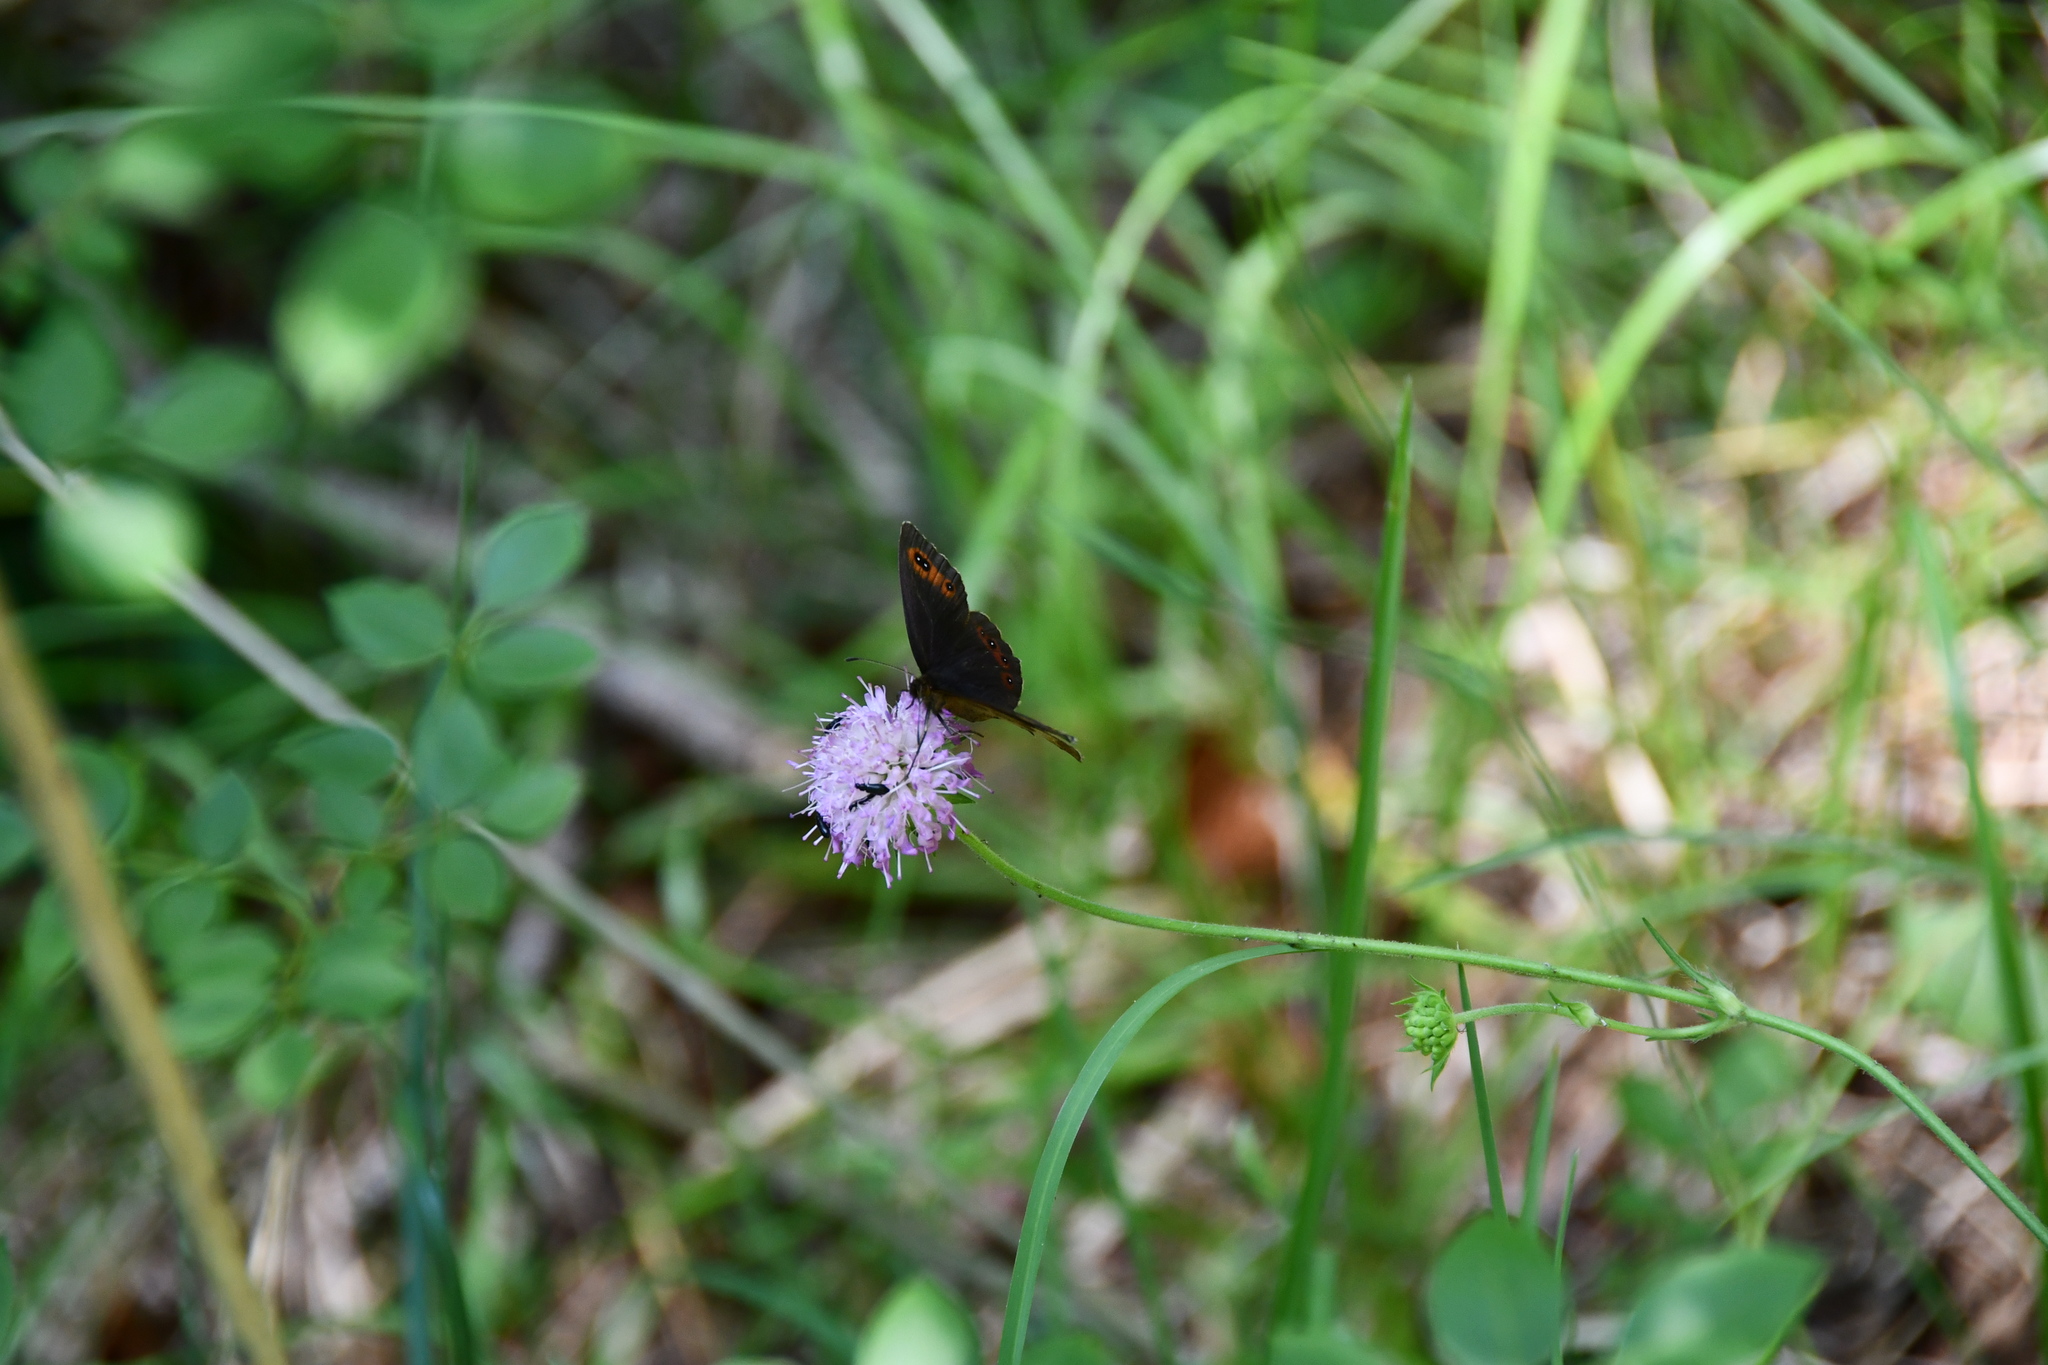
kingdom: Animalia
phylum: Arthropoda
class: Insecta
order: Lepidoptera
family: Nymphalidae
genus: Erebia
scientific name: Erebia aethiops
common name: Scotch argus
